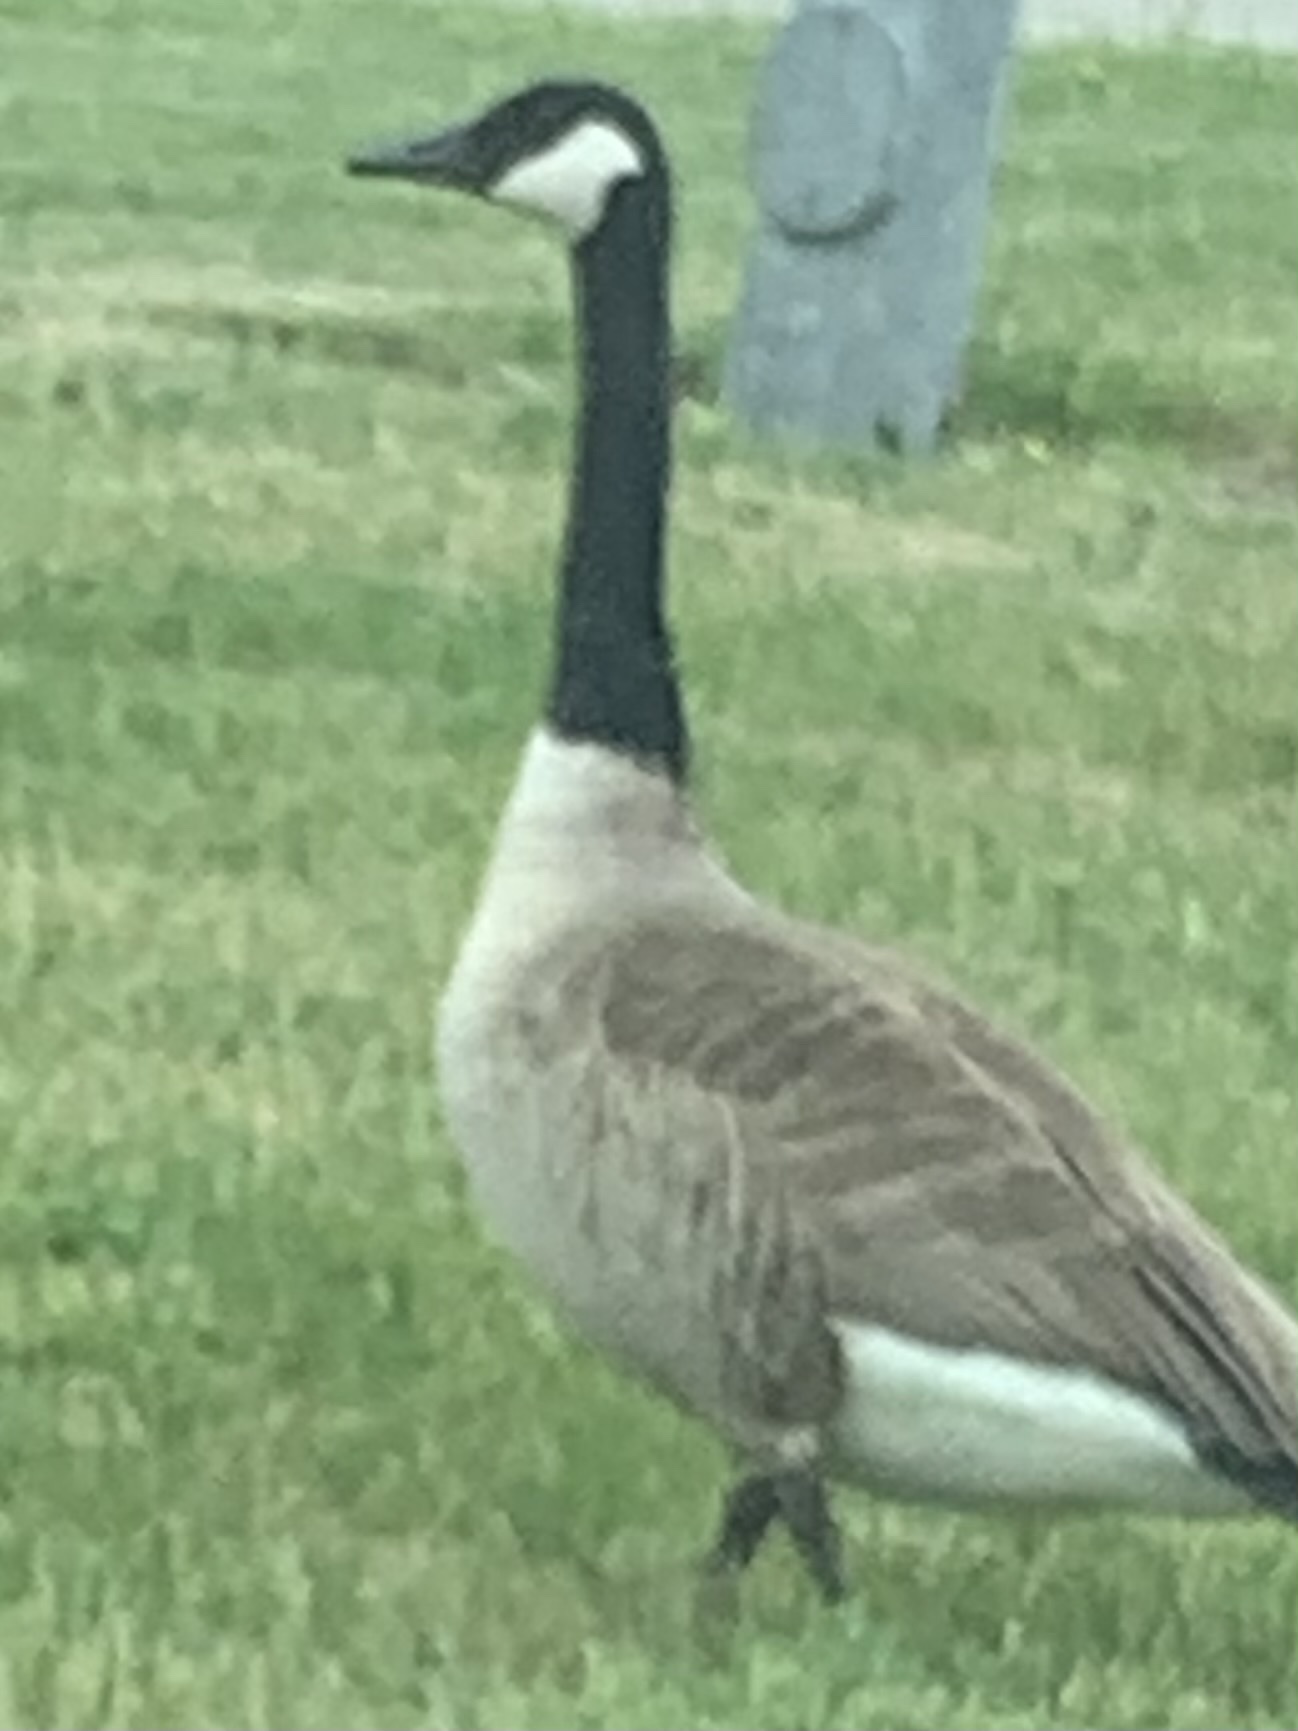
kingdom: Animalia
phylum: Chordata
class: Aves
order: Anseriformes
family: Anatidae
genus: Branta
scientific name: Branta canadensis
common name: Canada goose
